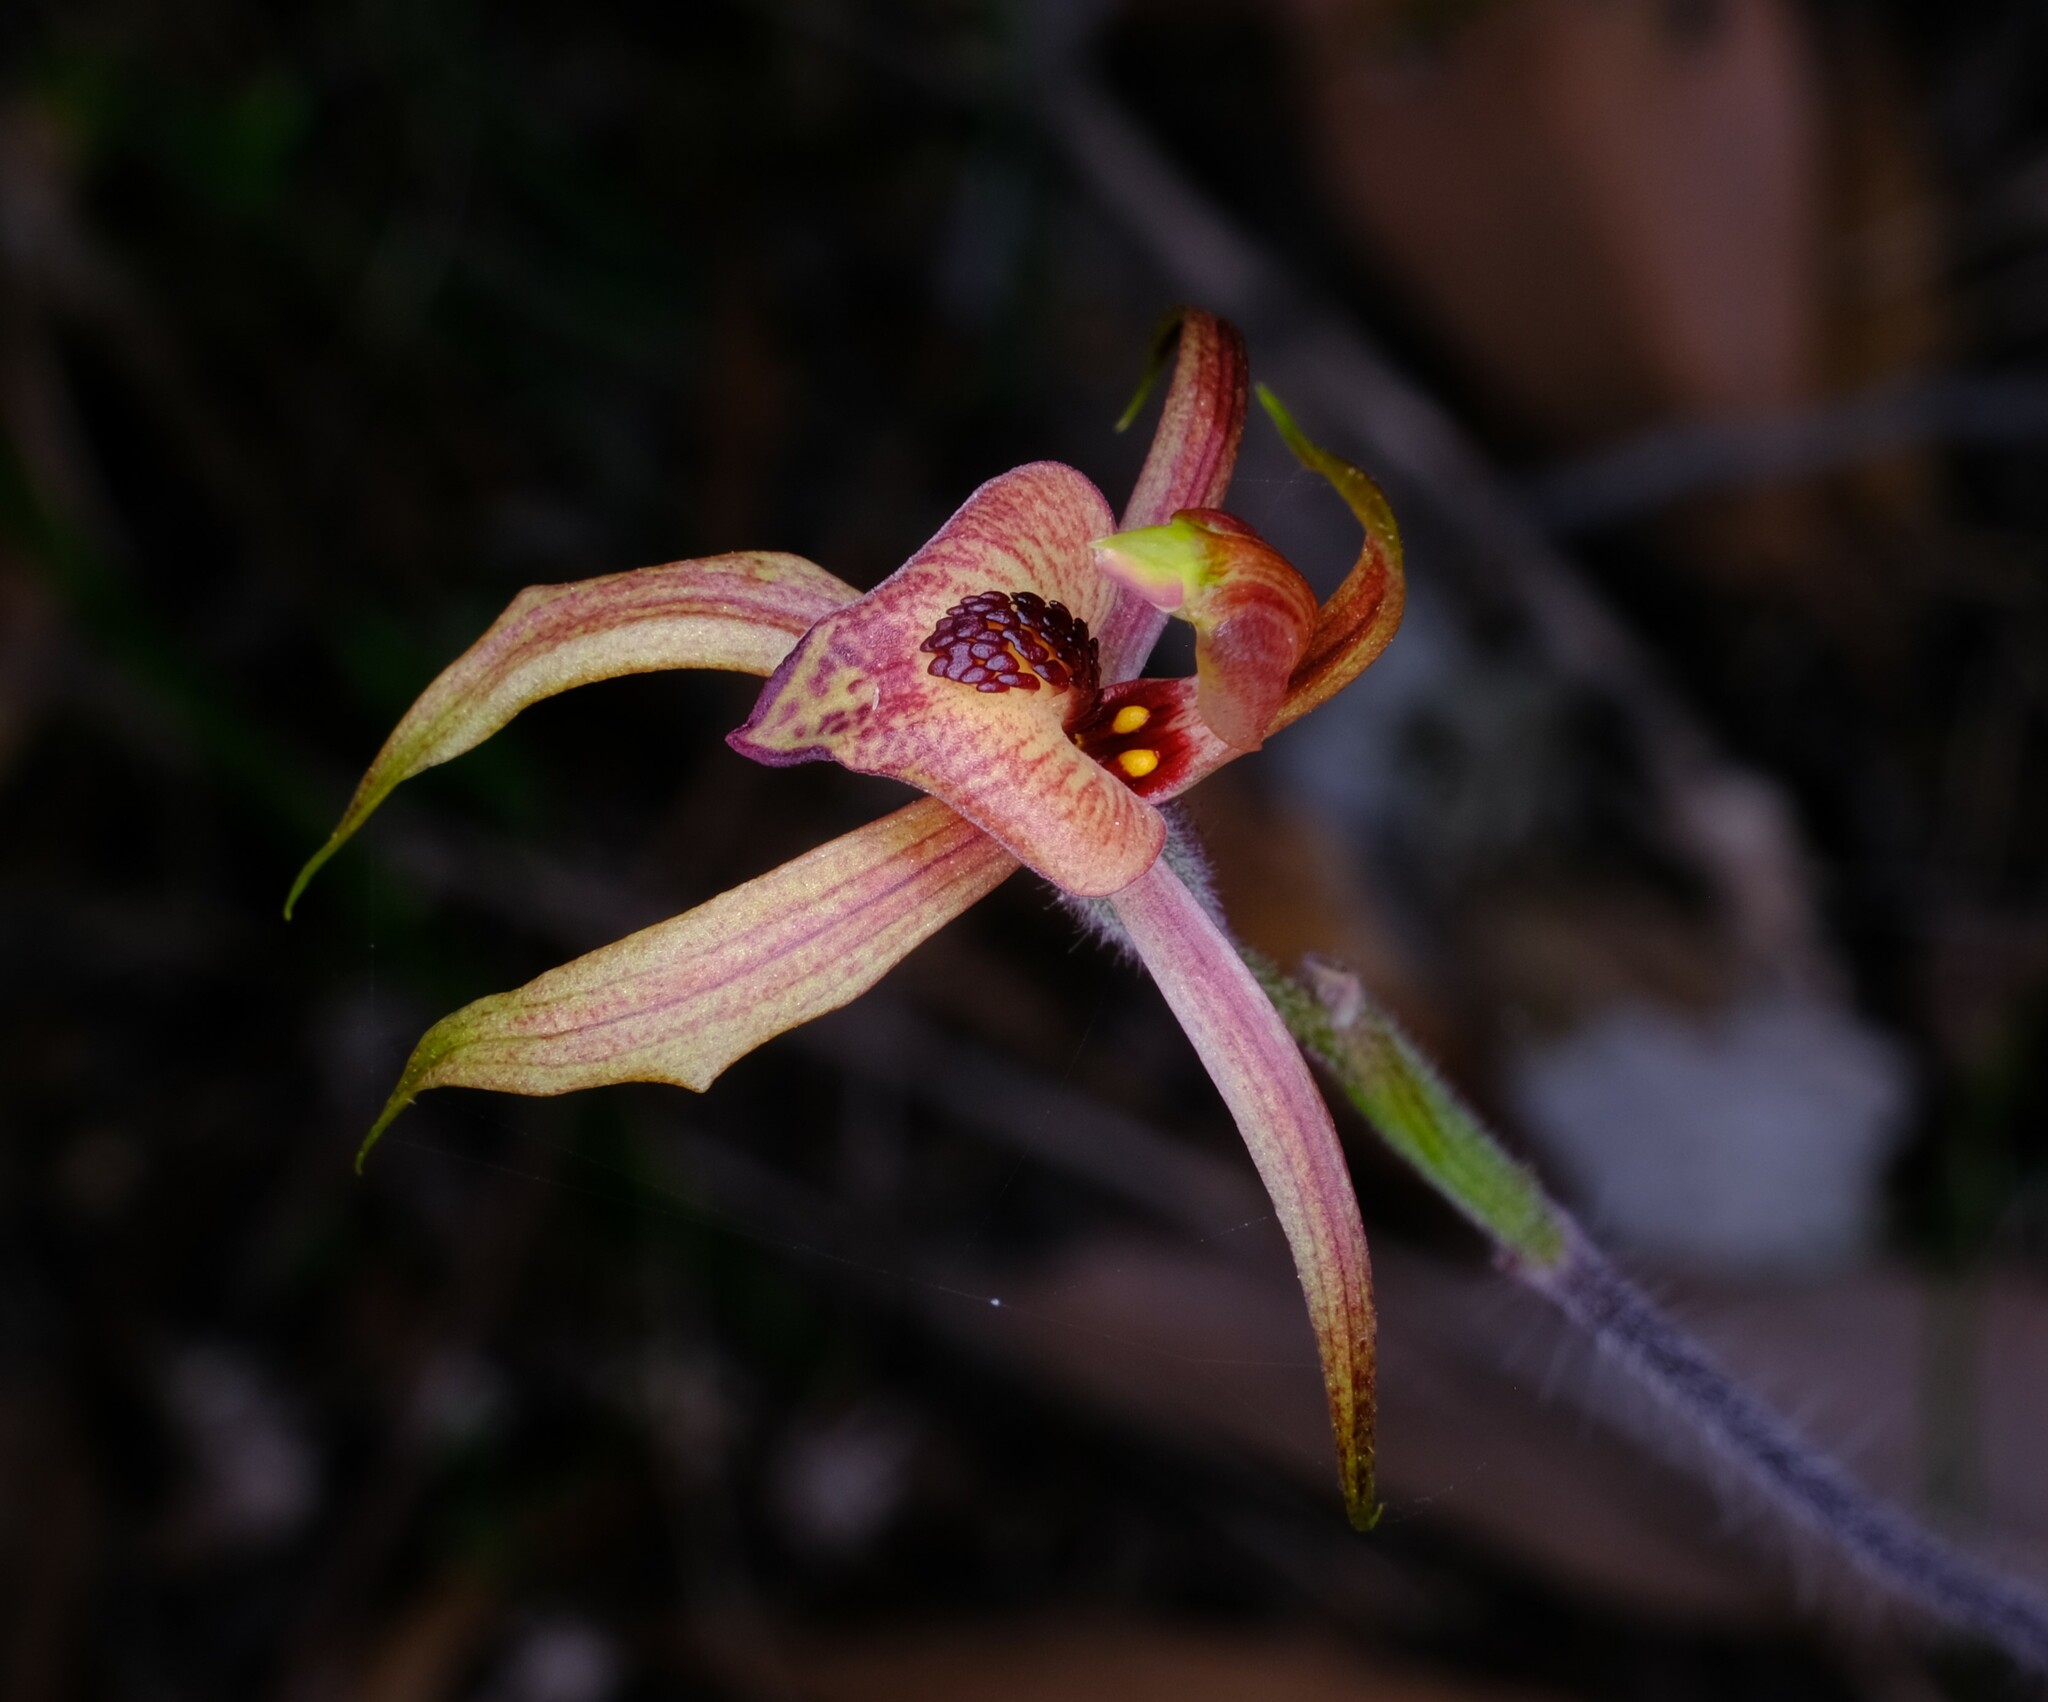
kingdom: Plantae
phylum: Tracheophyta
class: Liliopsida
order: Asparagales
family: Orchidaceae
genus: Caladenia
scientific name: Caladenia cardiochila
